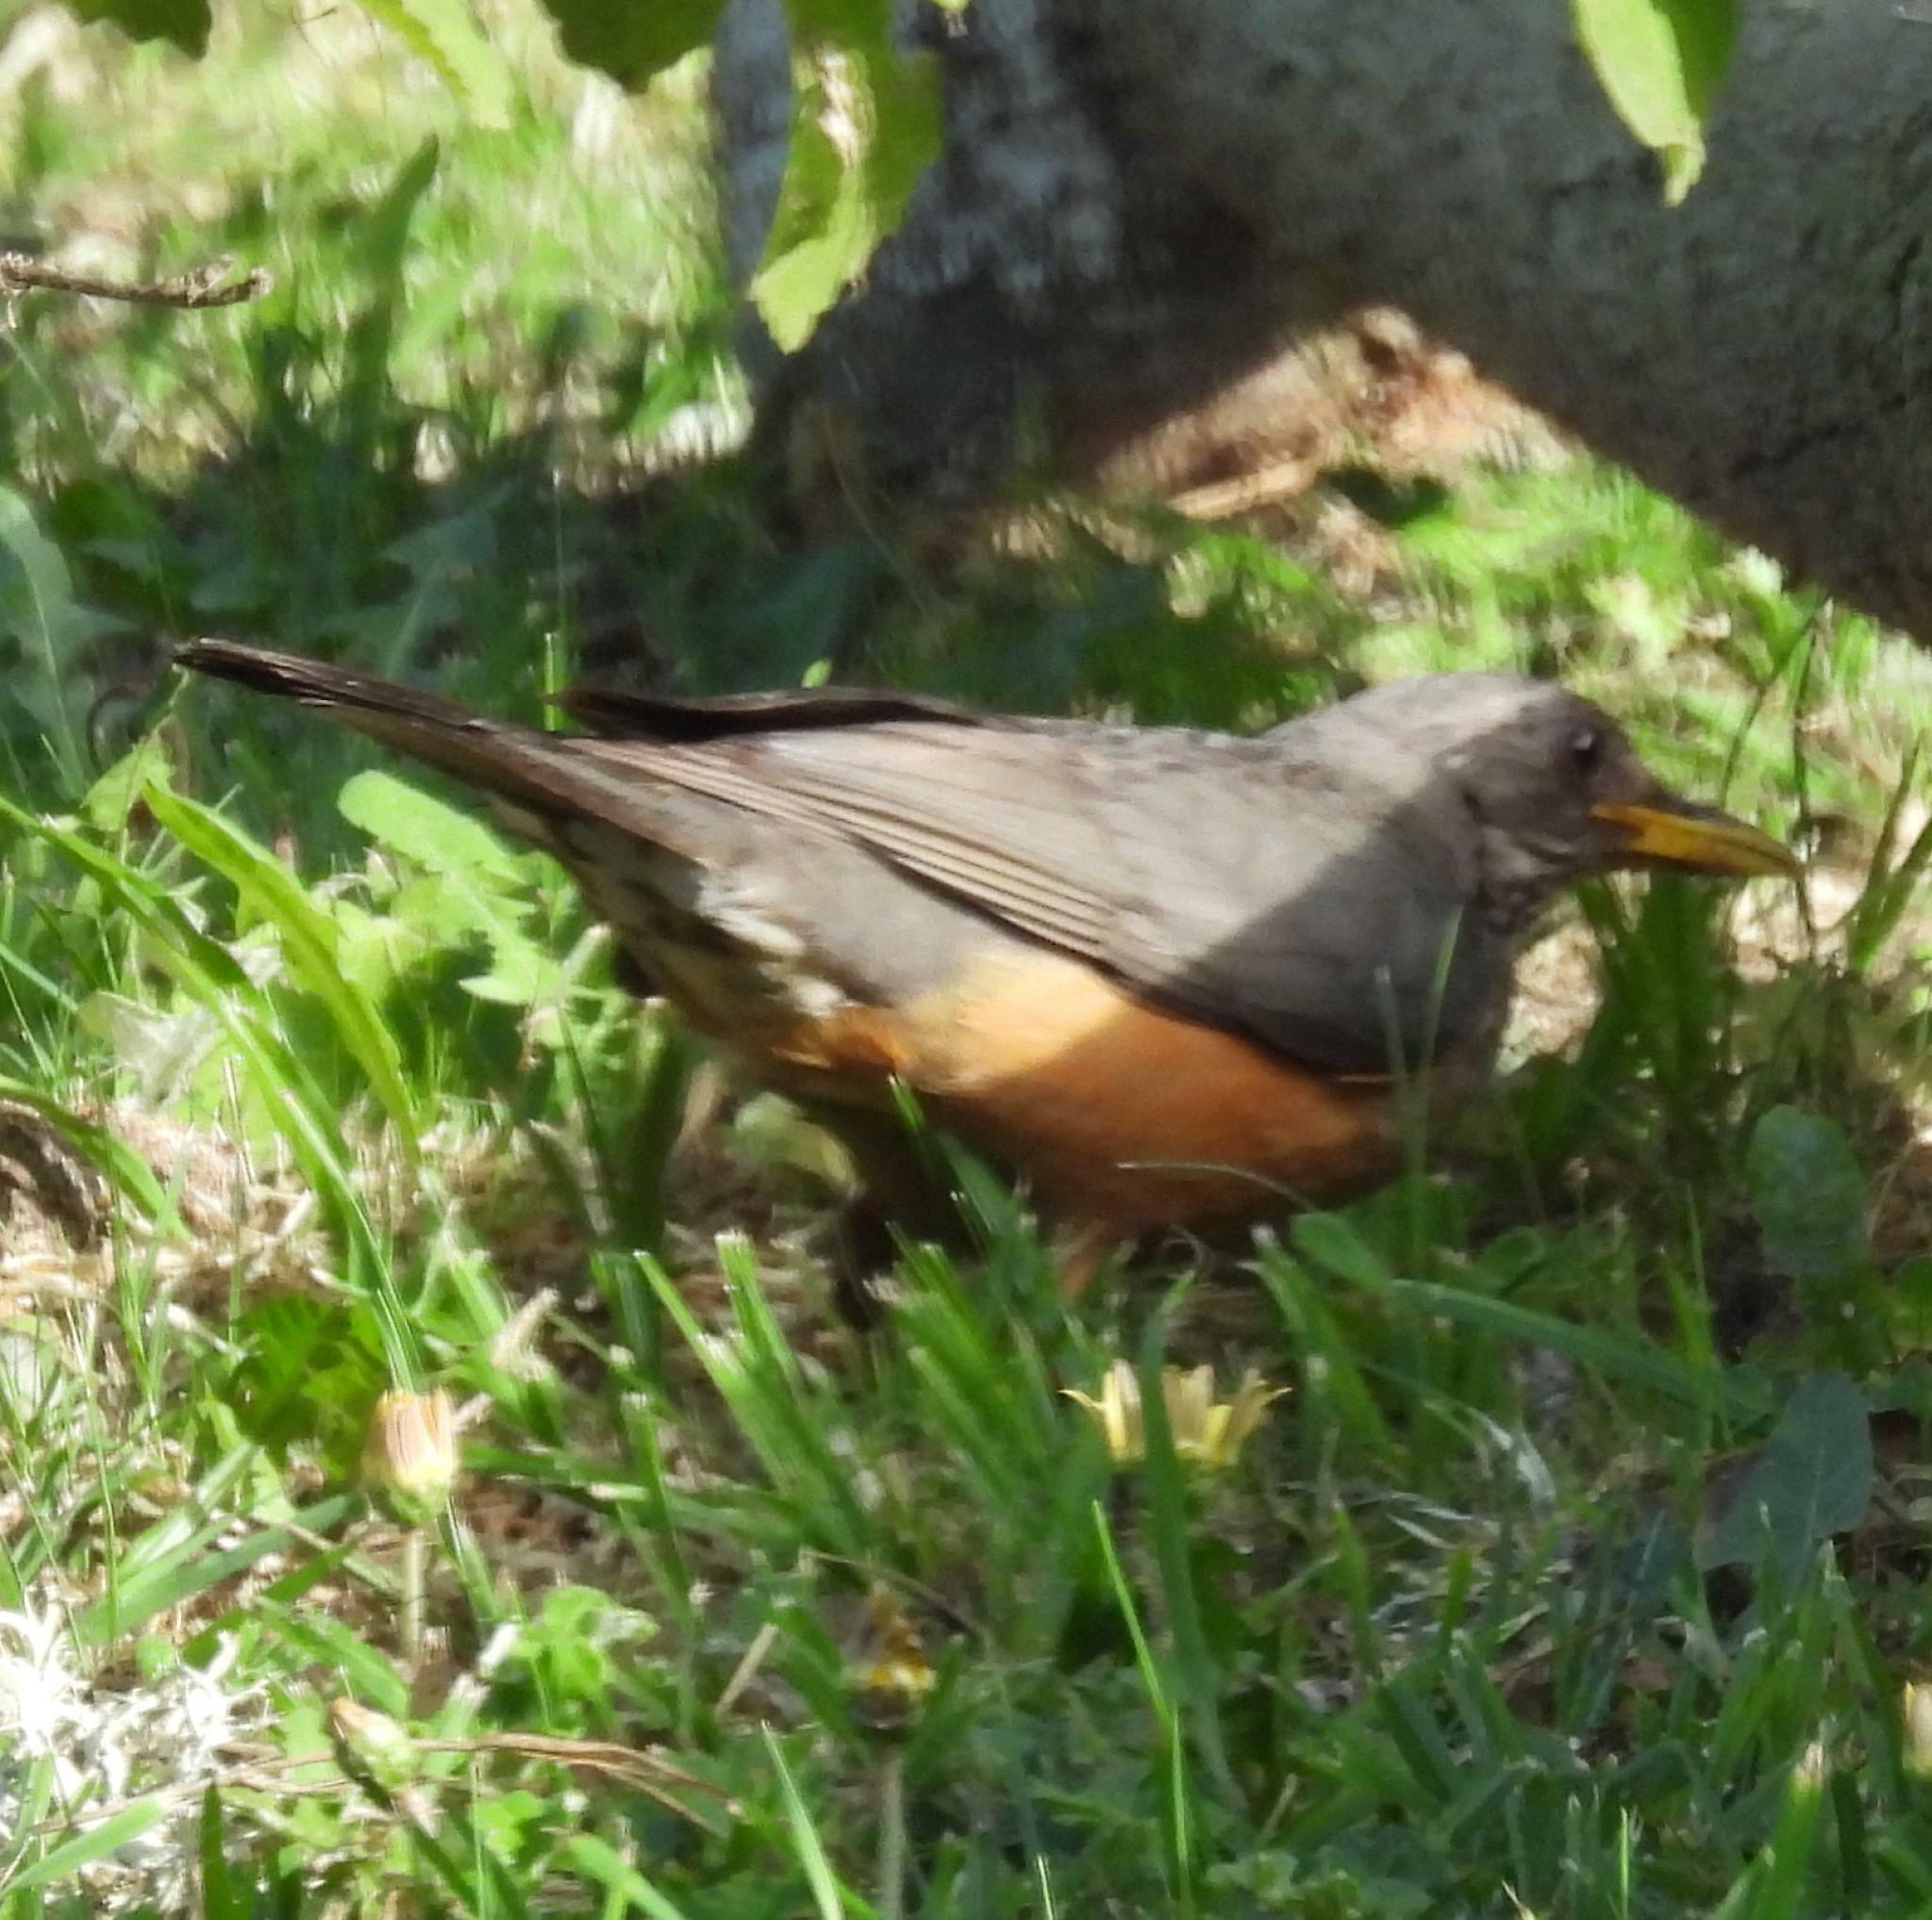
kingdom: Animalia
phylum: Chordata
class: Aves
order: Passeriformes
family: Turdidae
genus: Turdus
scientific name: Turdus olivaceus
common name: Olive thrush
